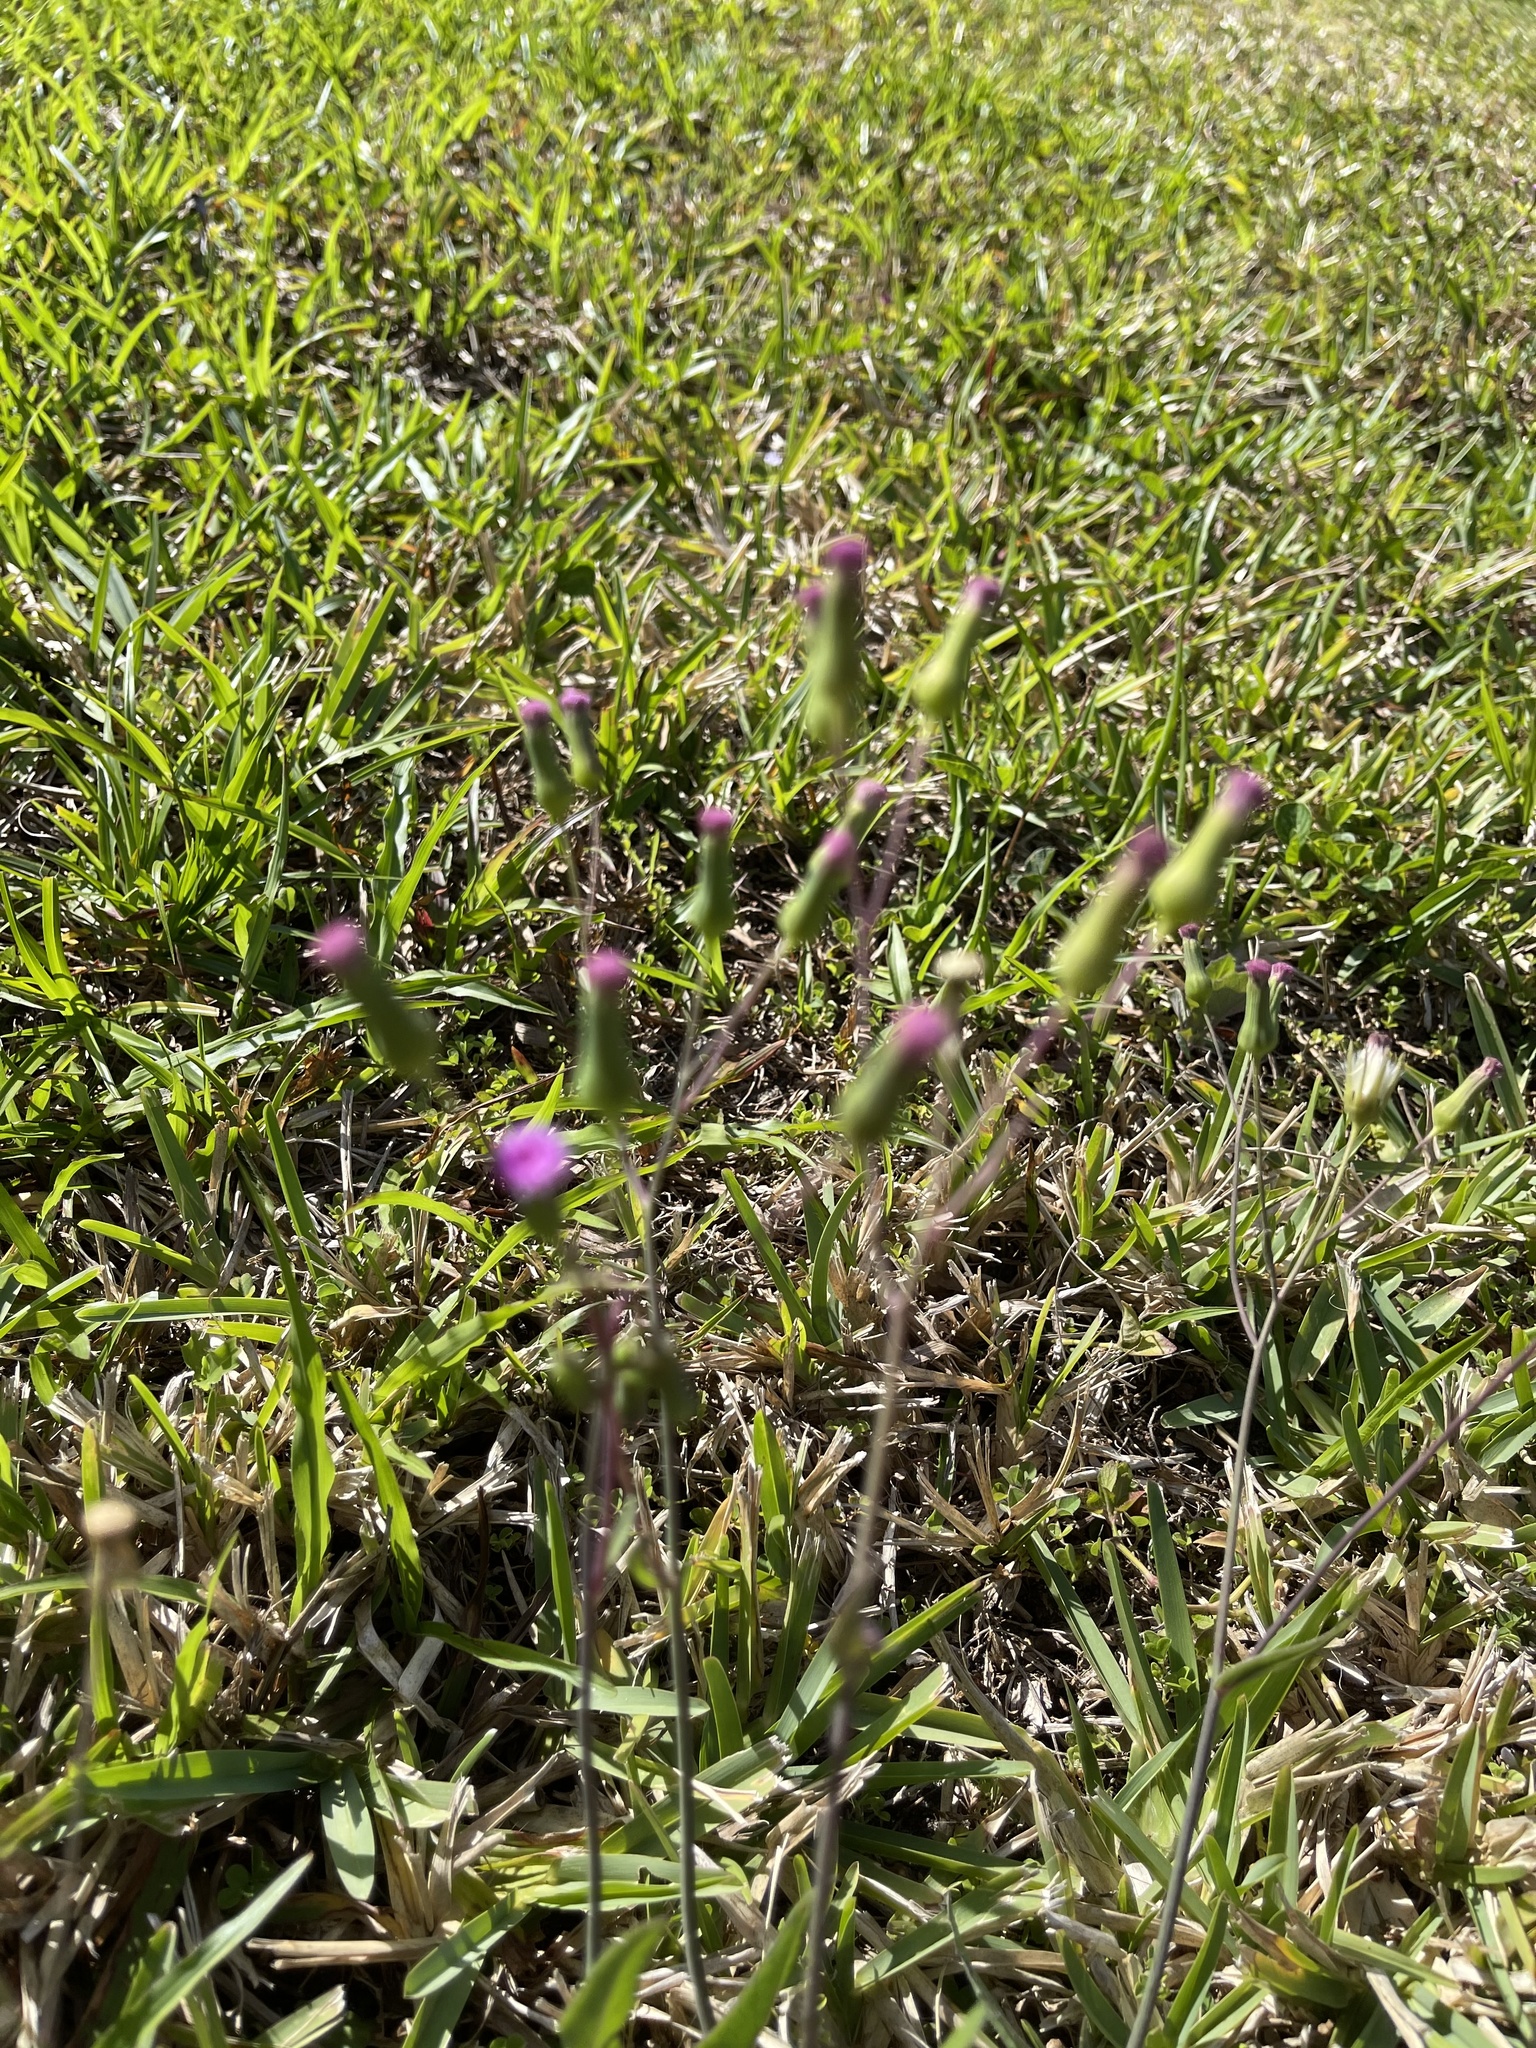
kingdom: Plantae
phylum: Tracheophyta
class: Magnoliopsida
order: Asterales
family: Asteraceae
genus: Emilia
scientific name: Emilia sonchifolia
